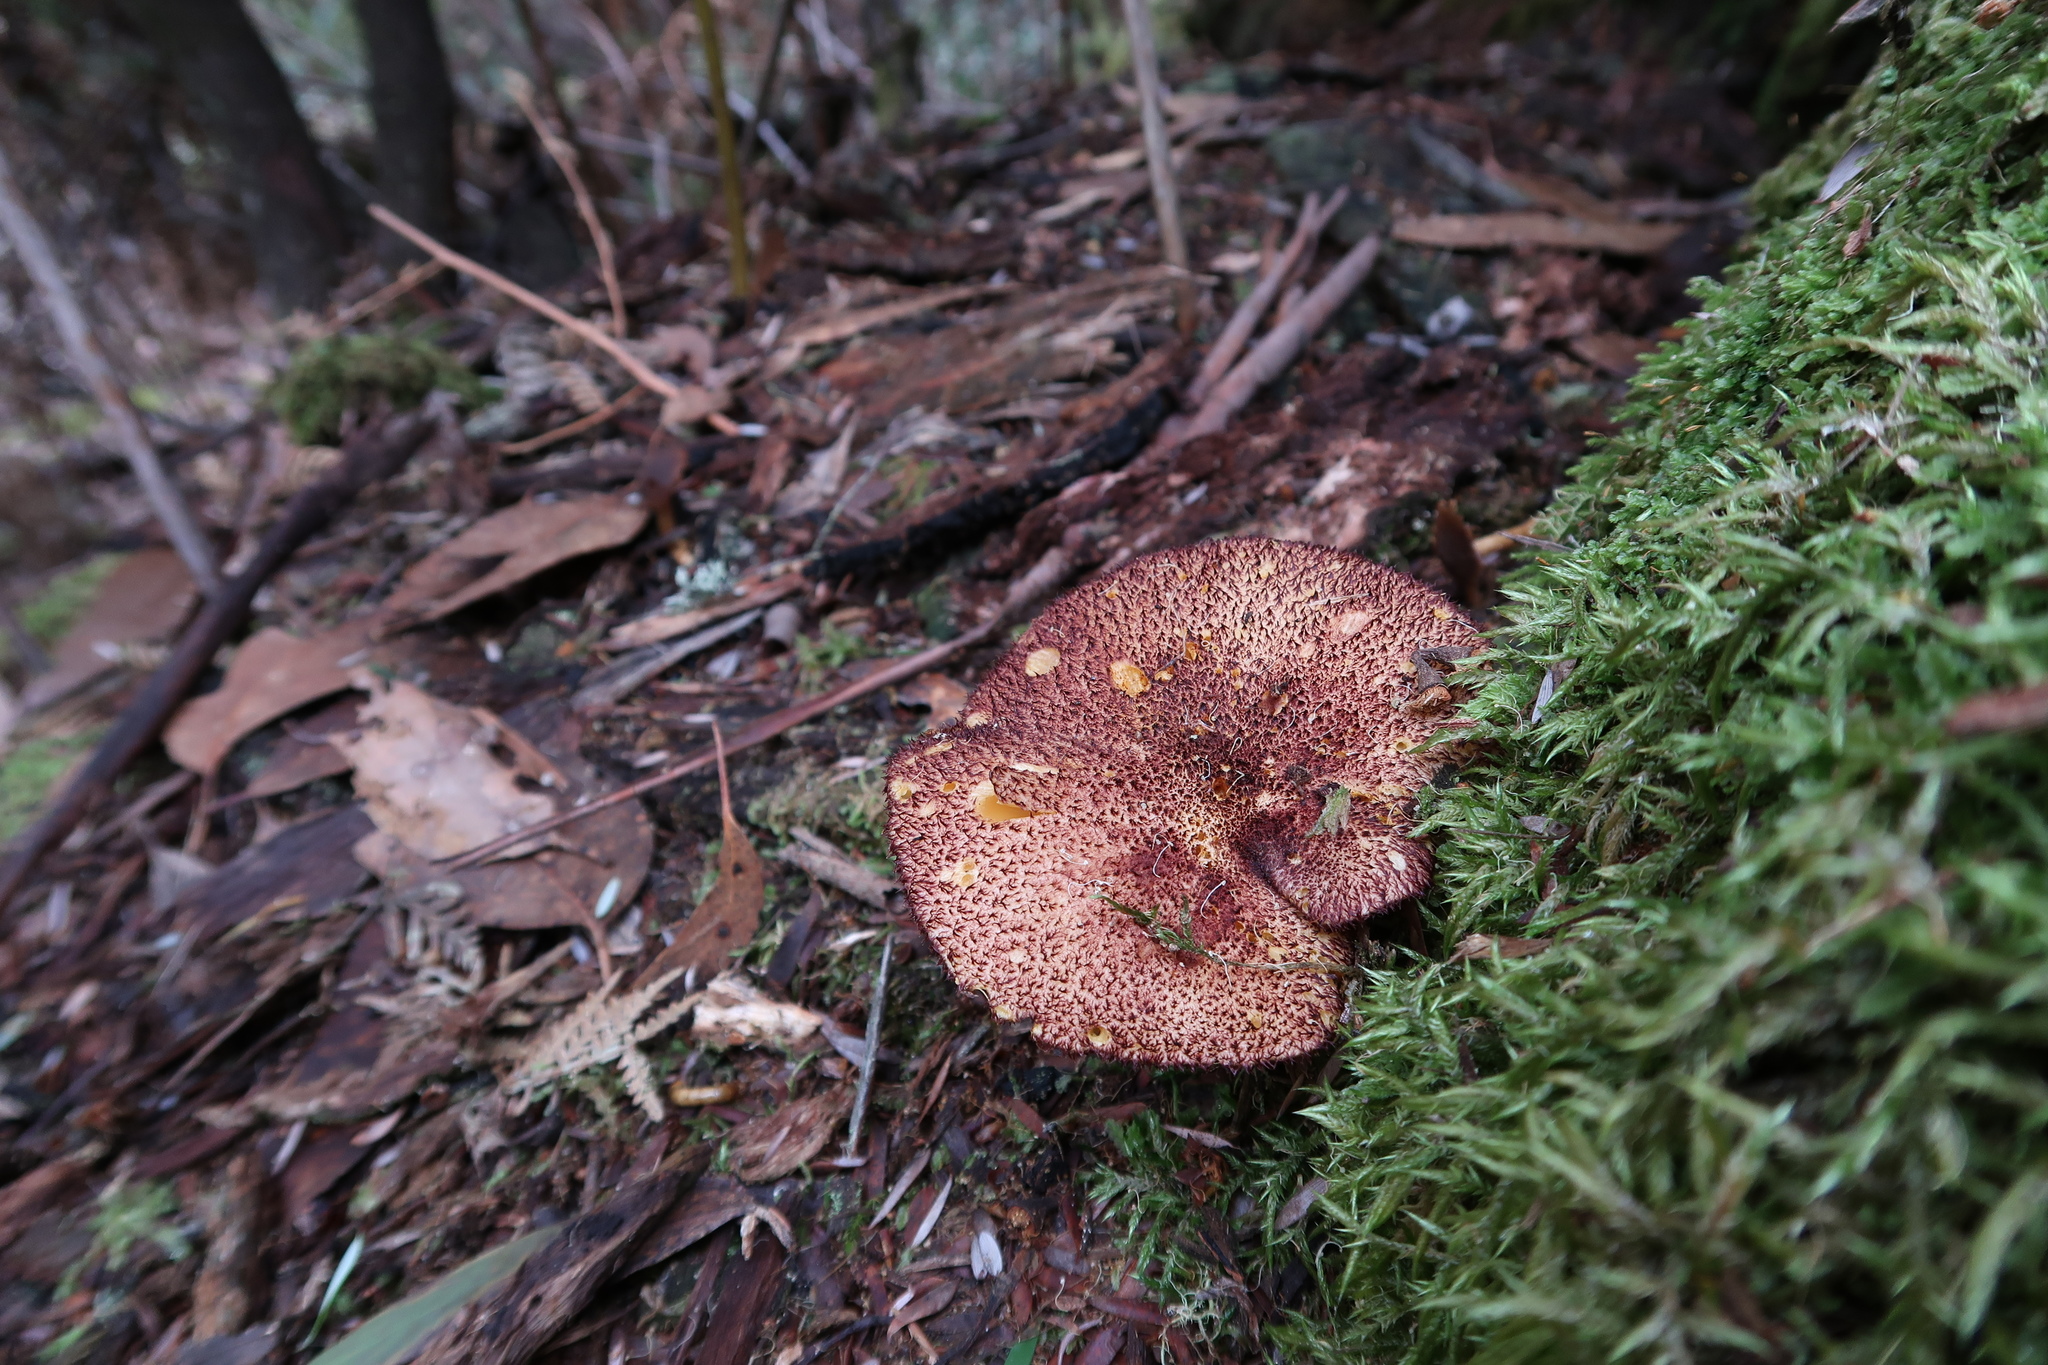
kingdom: Fungi
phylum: Basidiomycota
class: Agaricomycetes
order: Agaricales
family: Tricholomataceae
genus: Tricholomopsis
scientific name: Tricholomopsis rutilans
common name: Plums and custard
